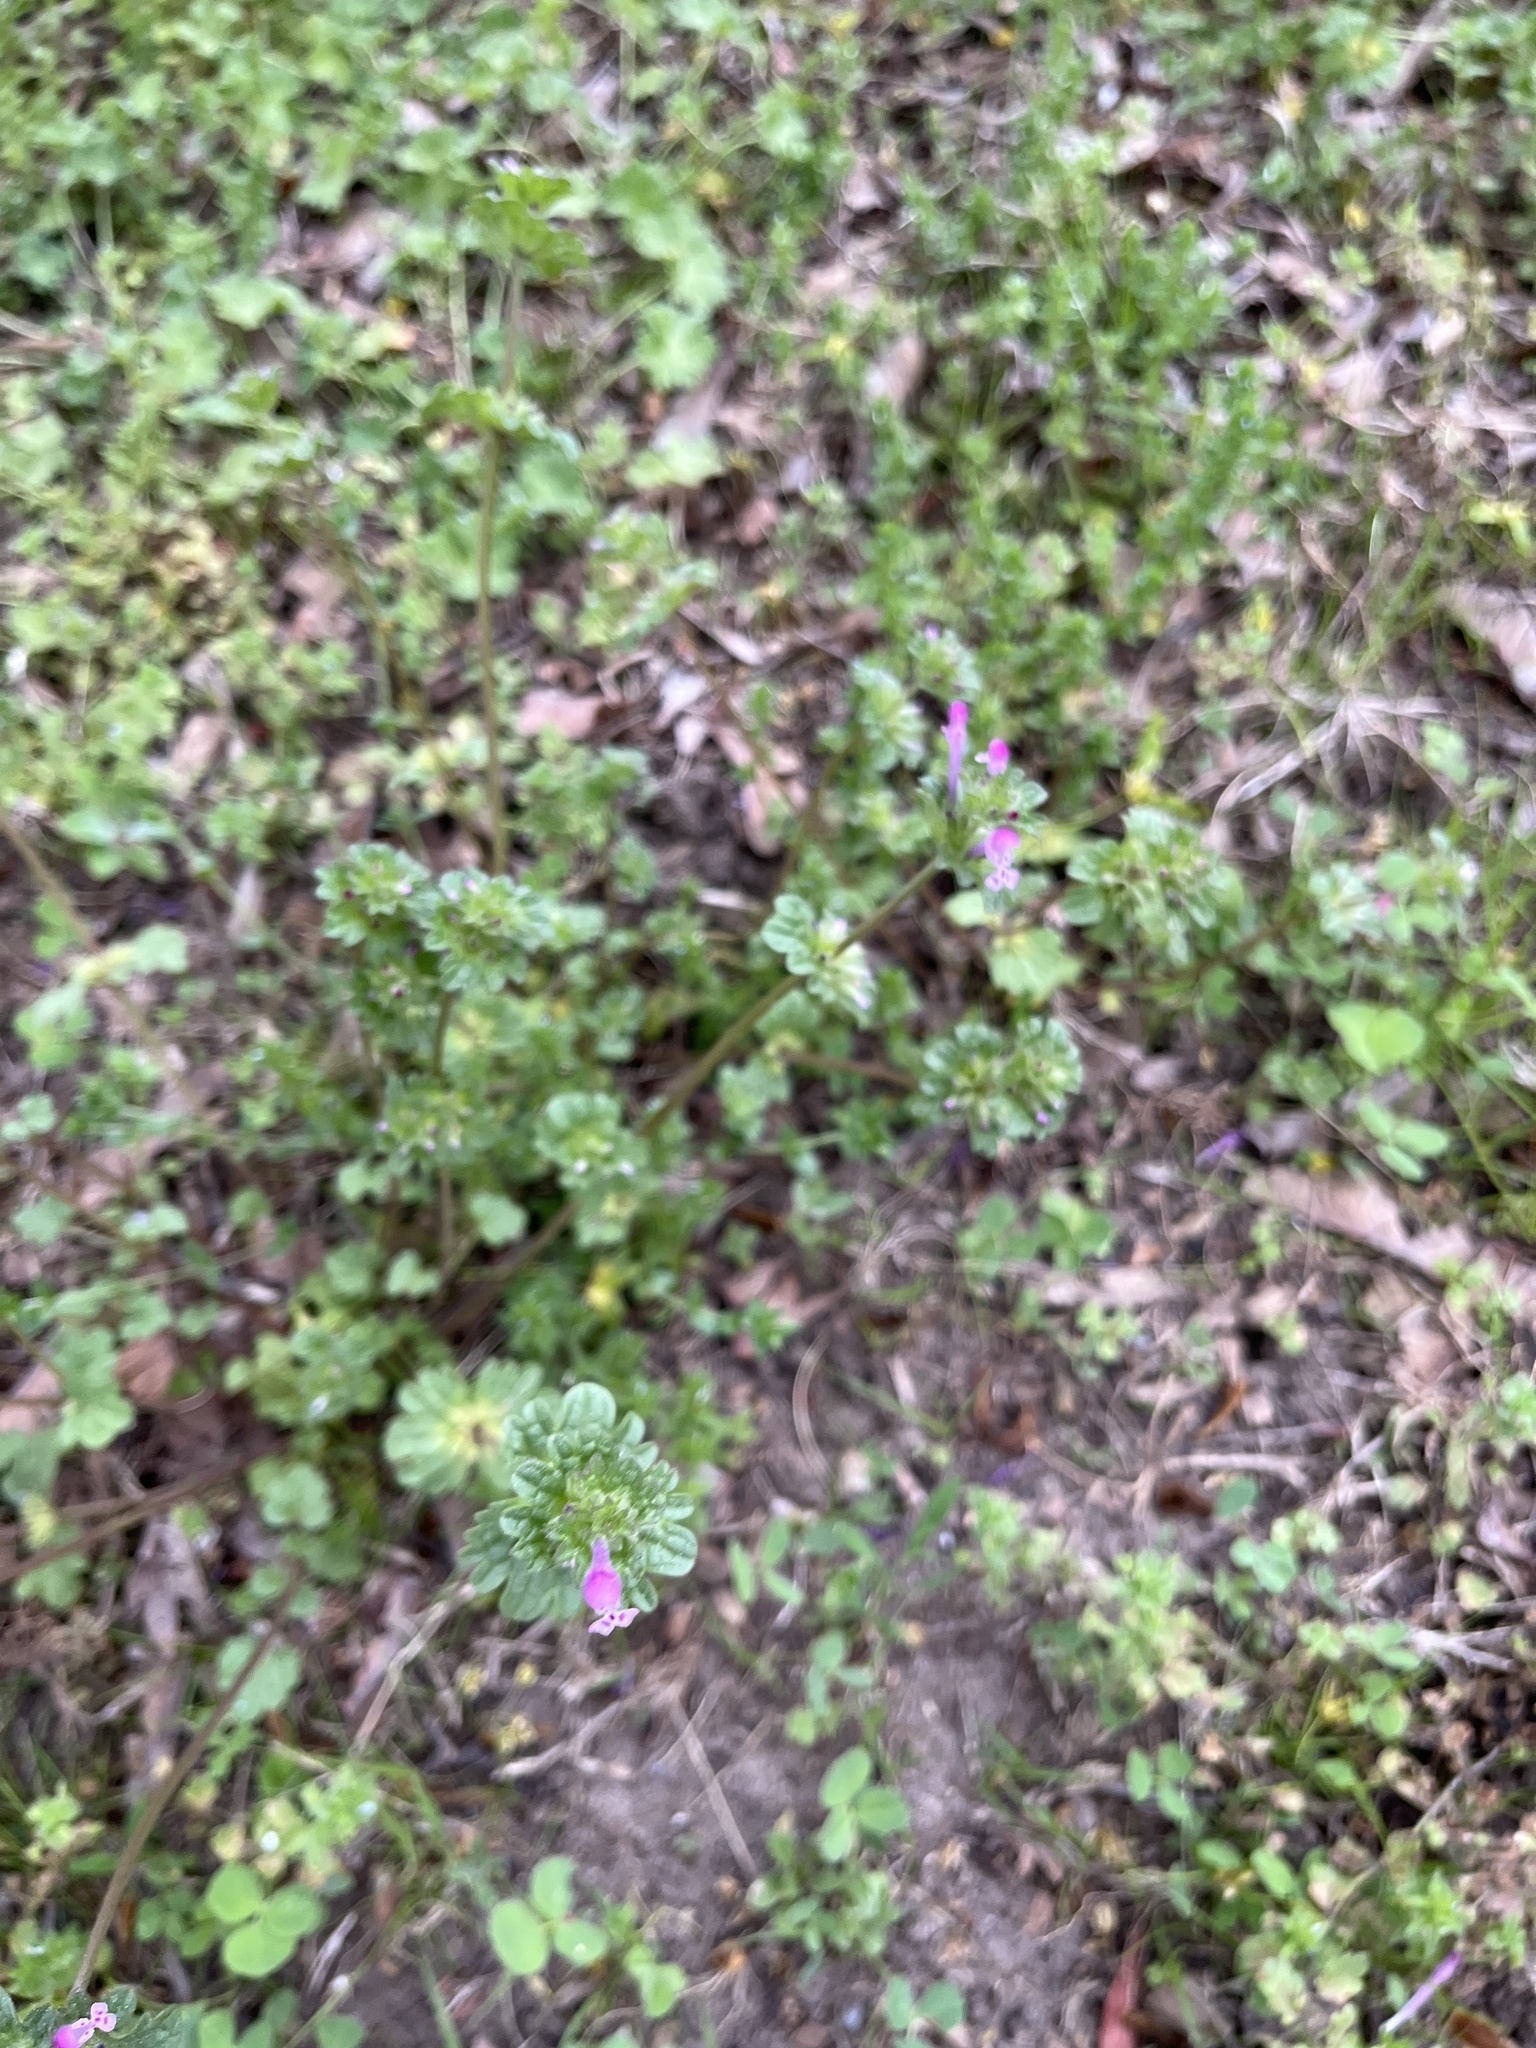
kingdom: Plantae
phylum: Tracheophyta
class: Magnoliopsida
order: Lamiales
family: Lamiaceae
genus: Lamium
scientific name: Lamium amplexicaule
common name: Henbit dead-nettle
